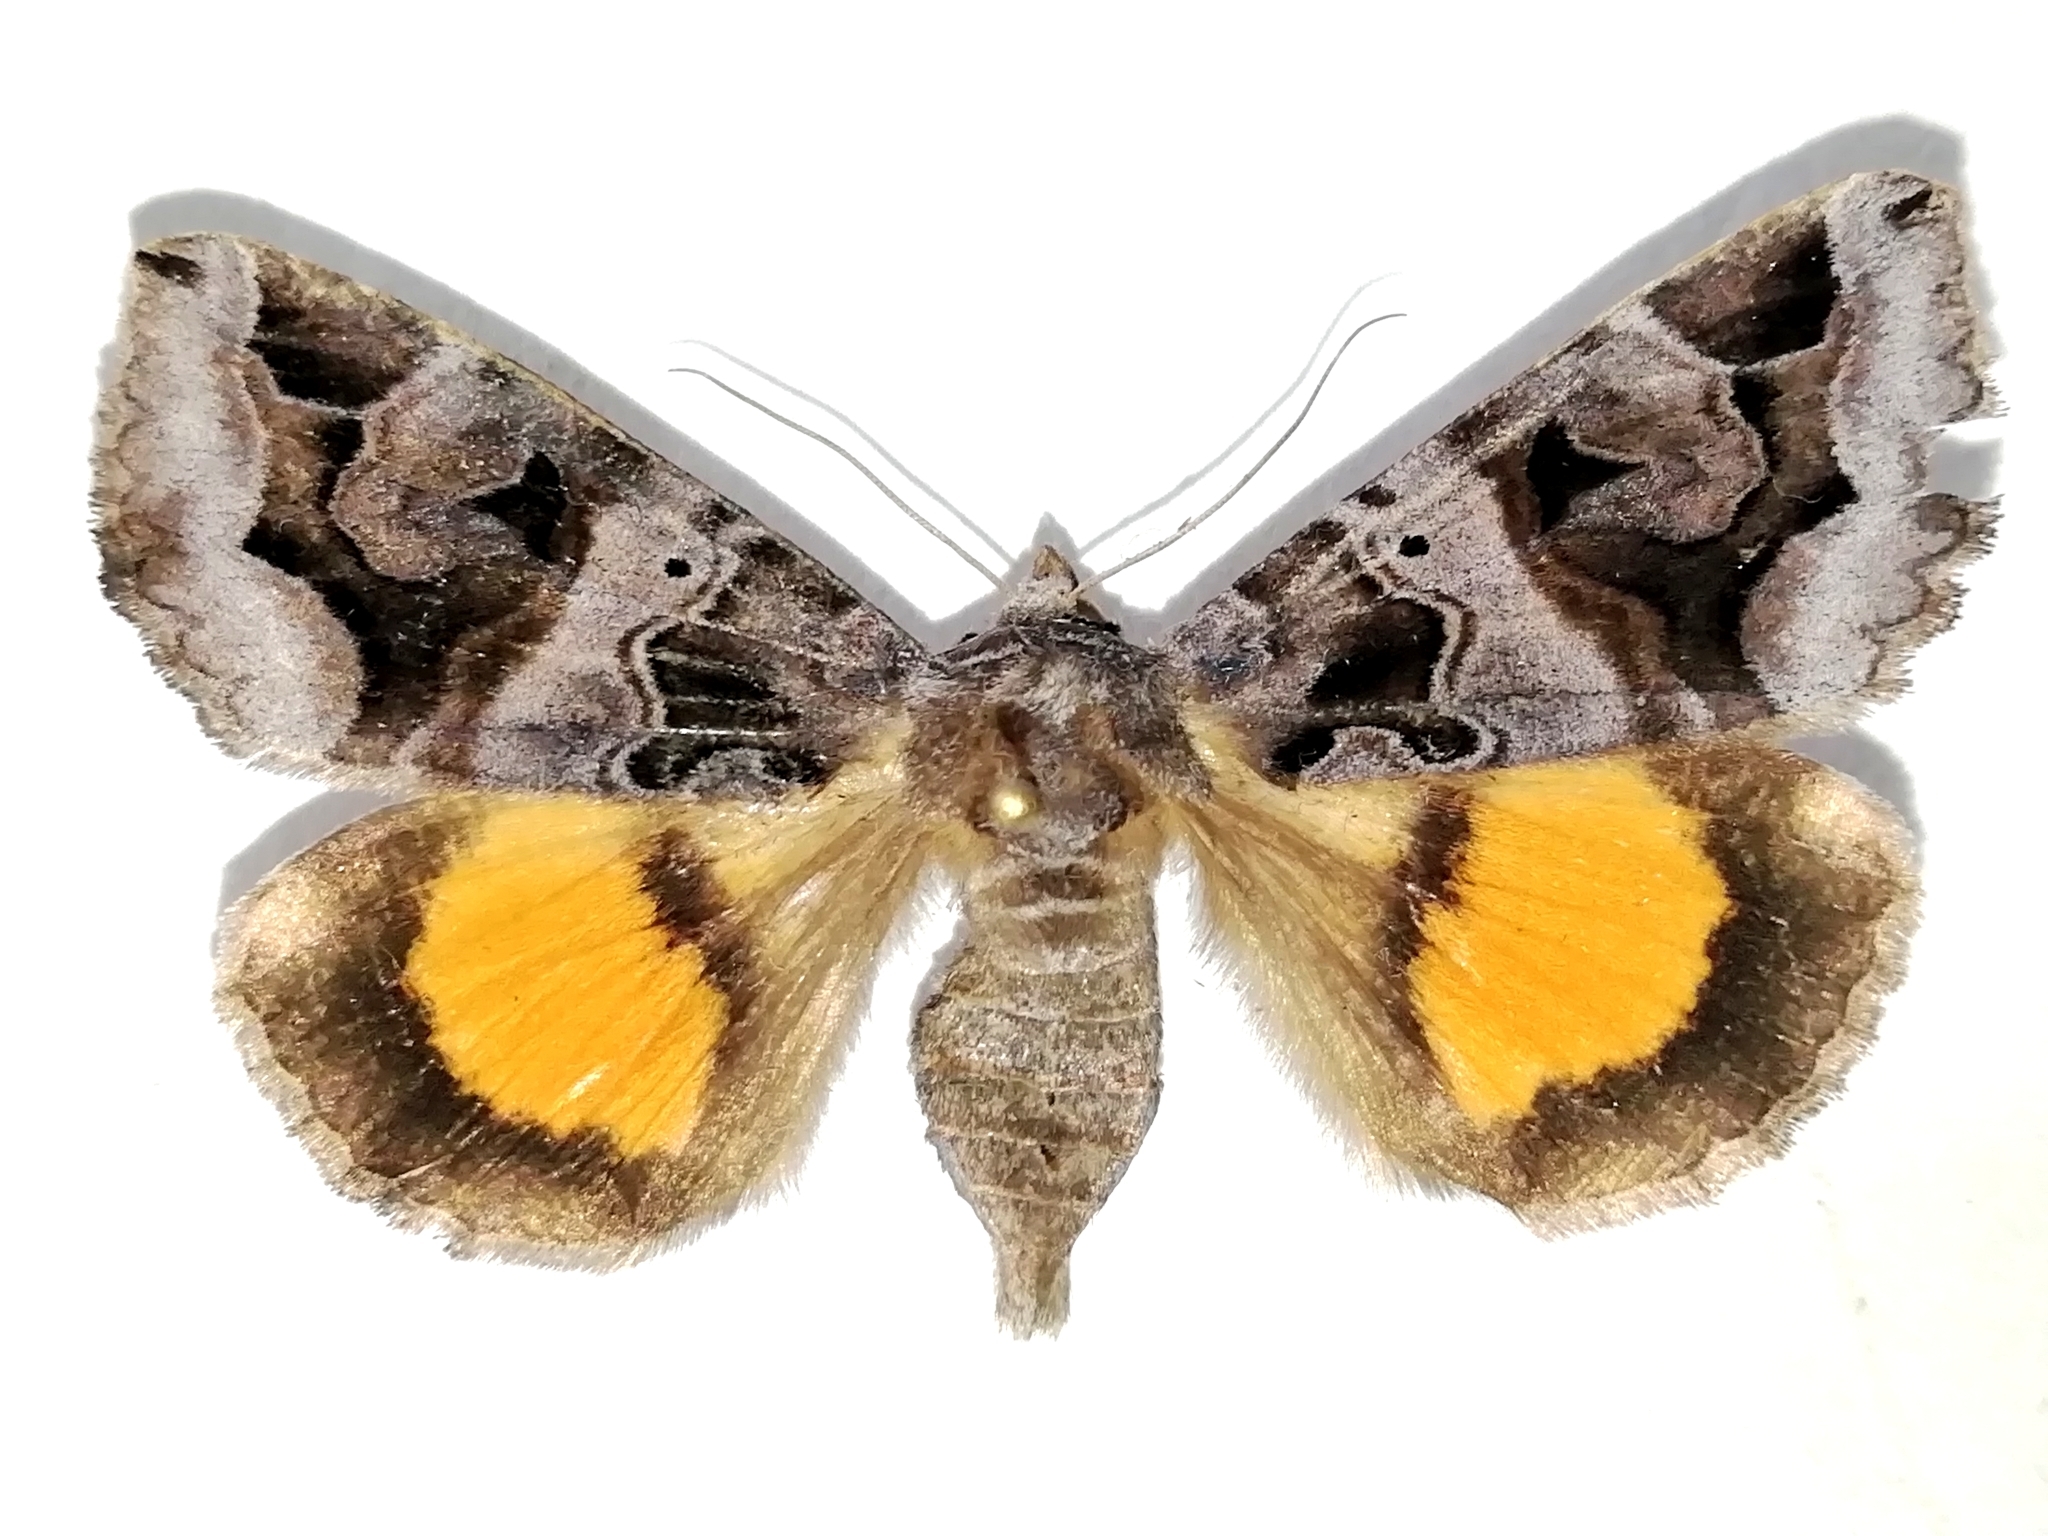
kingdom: Animalia
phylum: Arthropoda
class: Insecta
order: Lepidoptera
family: Erebidae
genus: Chrysorithrum
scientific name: Chrysorithrum flavomaculata
